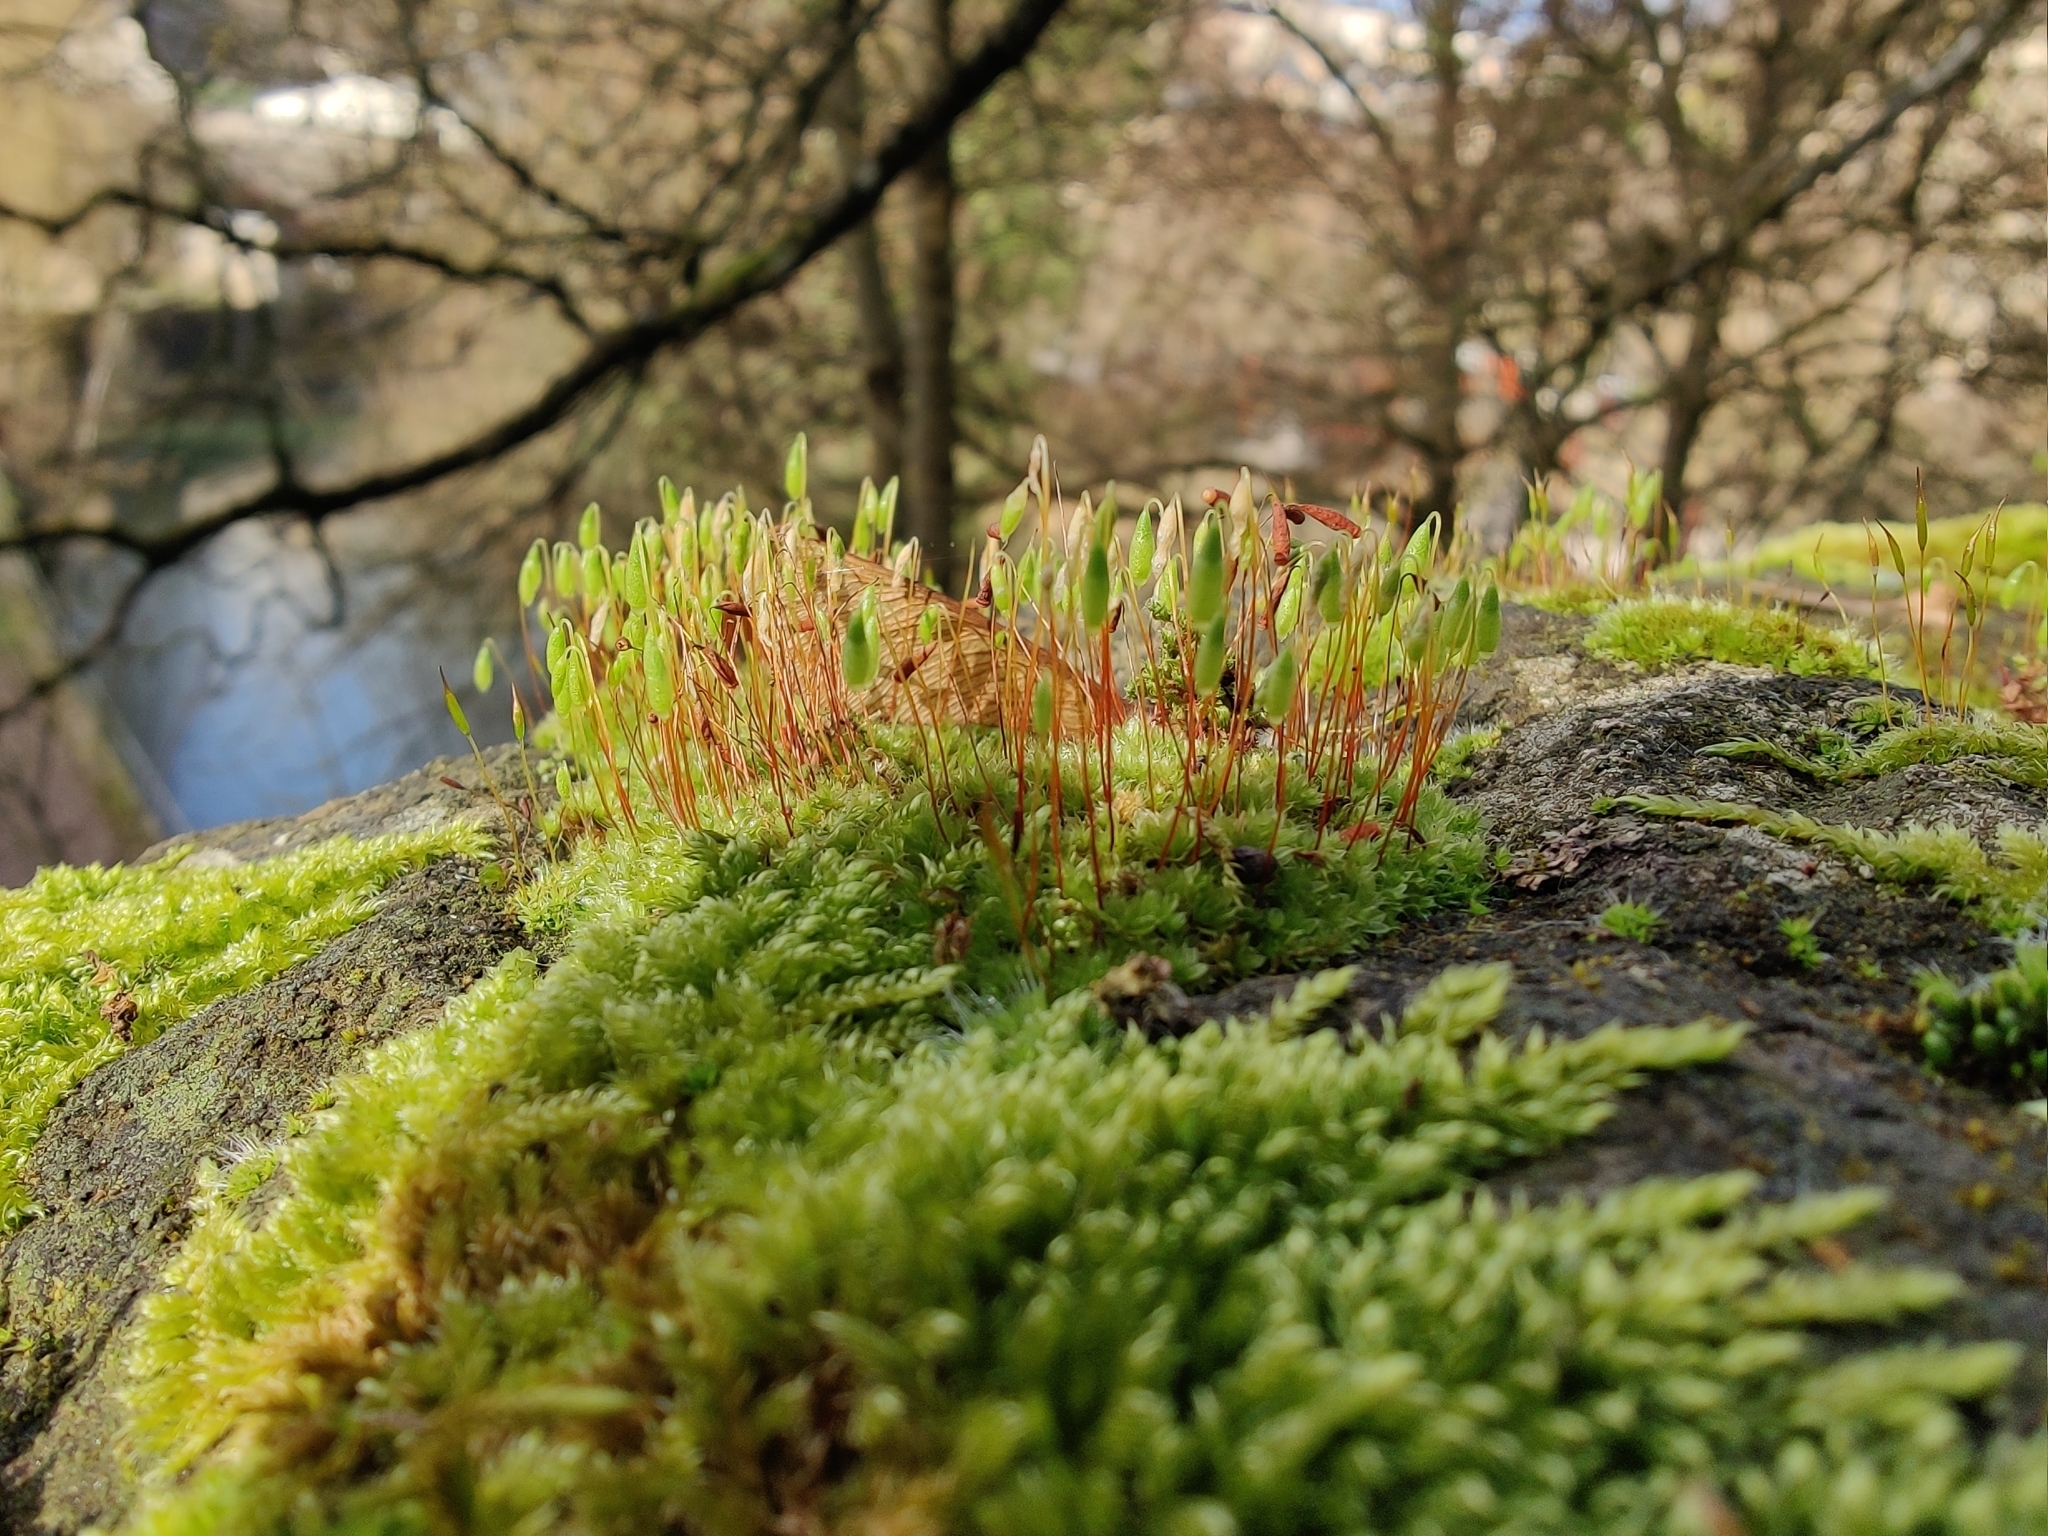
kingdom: Plantae
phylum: Bryophyta
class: Bryopsida
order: Bryales
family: Bryaceae
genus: Rosulabryum
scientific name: Rosulabryum capillare
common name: Capillary thread-moss
